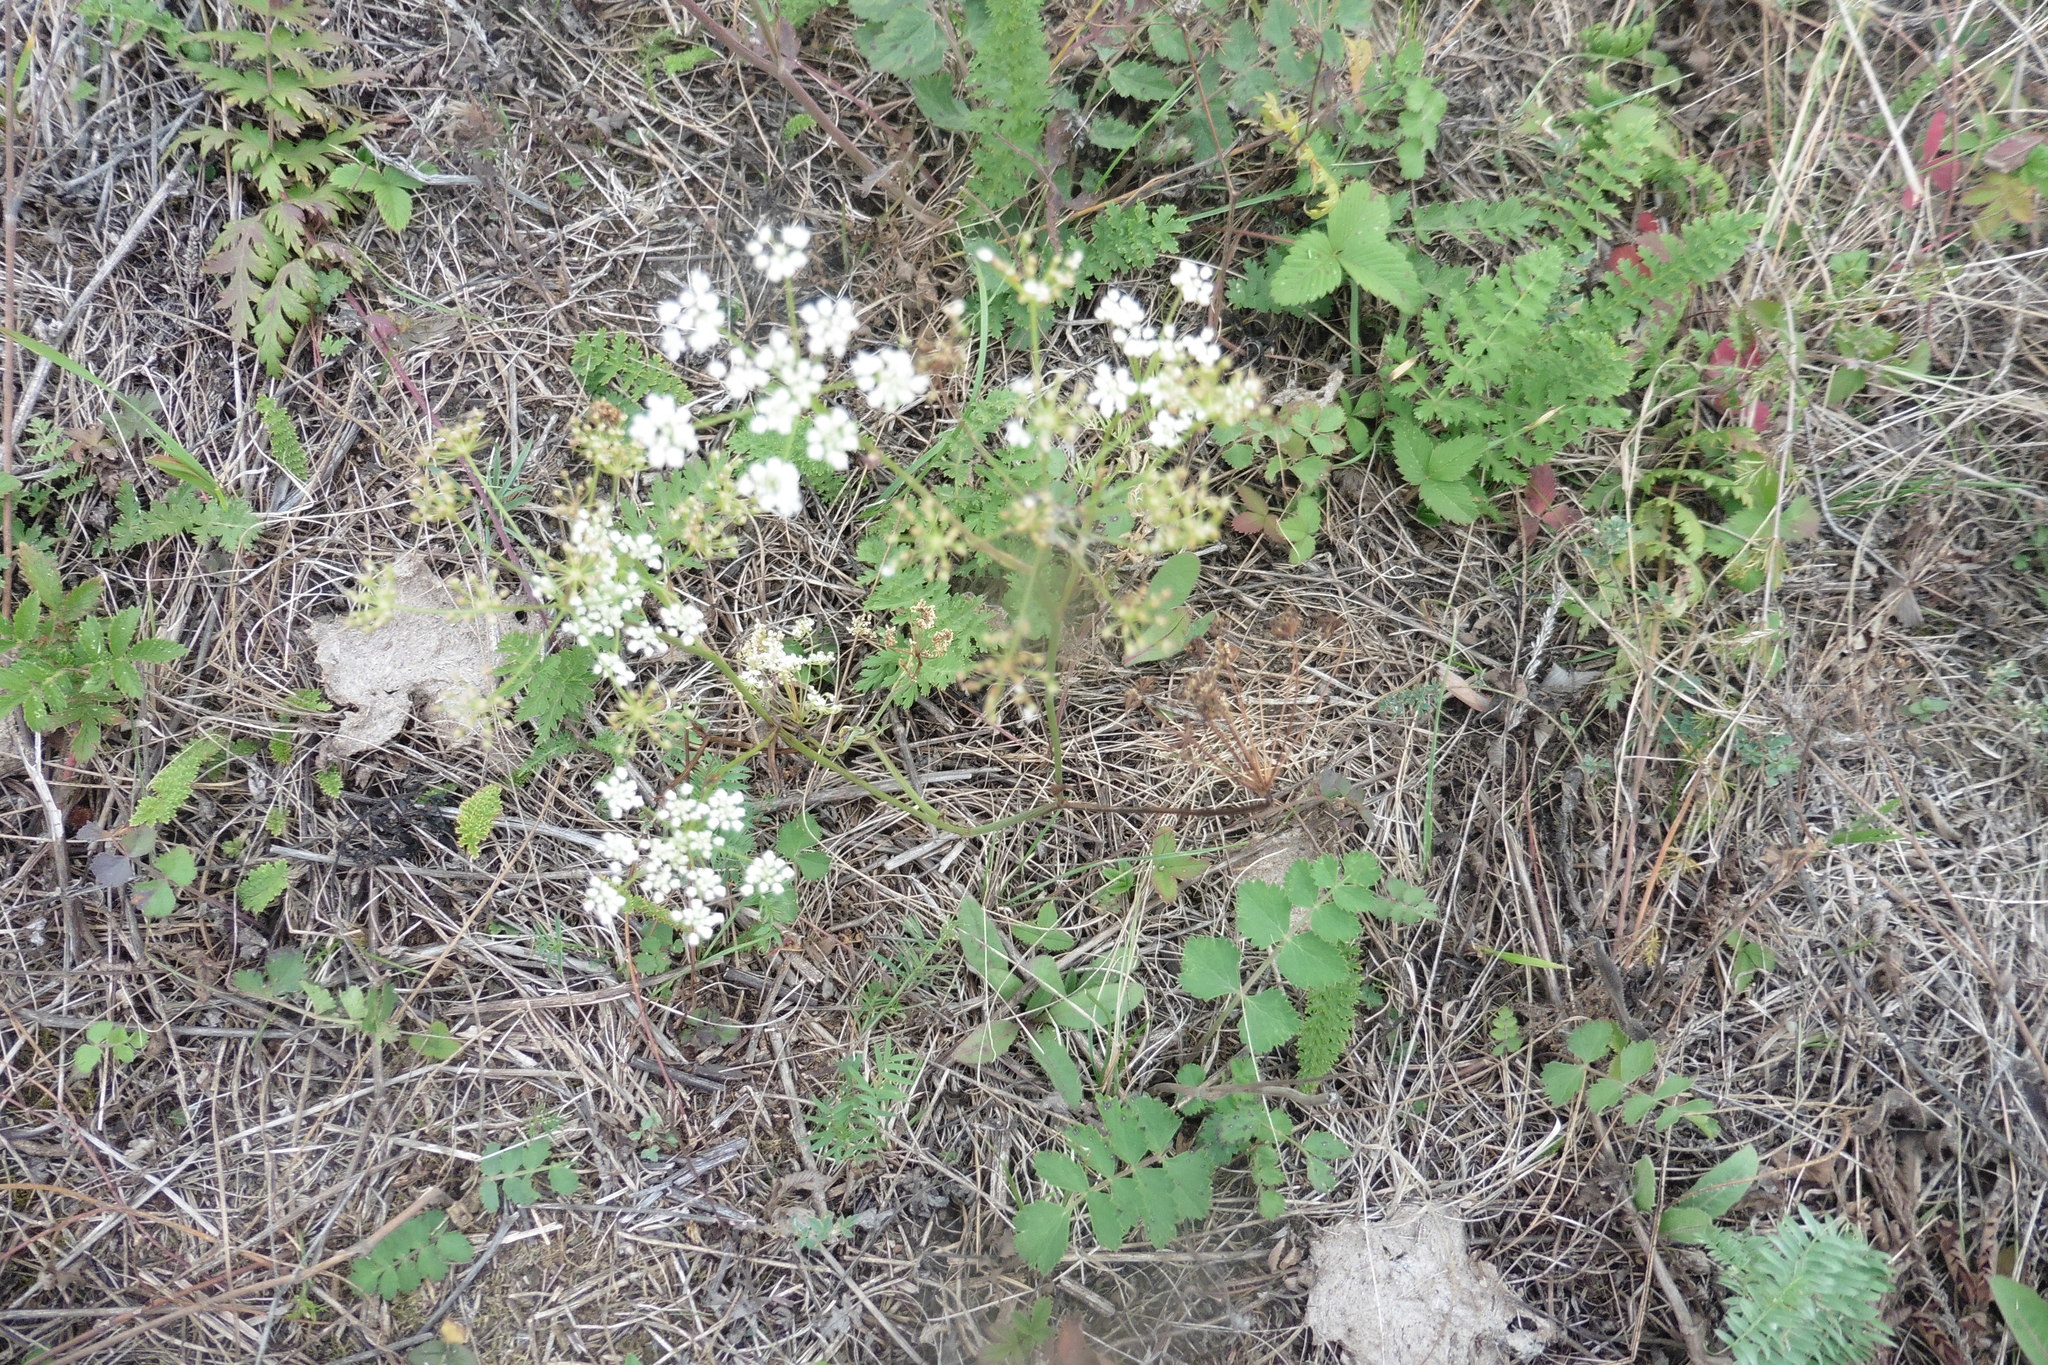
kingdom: Plantae
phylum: Tracheophyta
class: Magnoliopsida
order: Apiales
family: Apiaceae
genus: Pimpinella
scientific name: Pimpinella saxifraga
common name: Burnet-saxifrage
